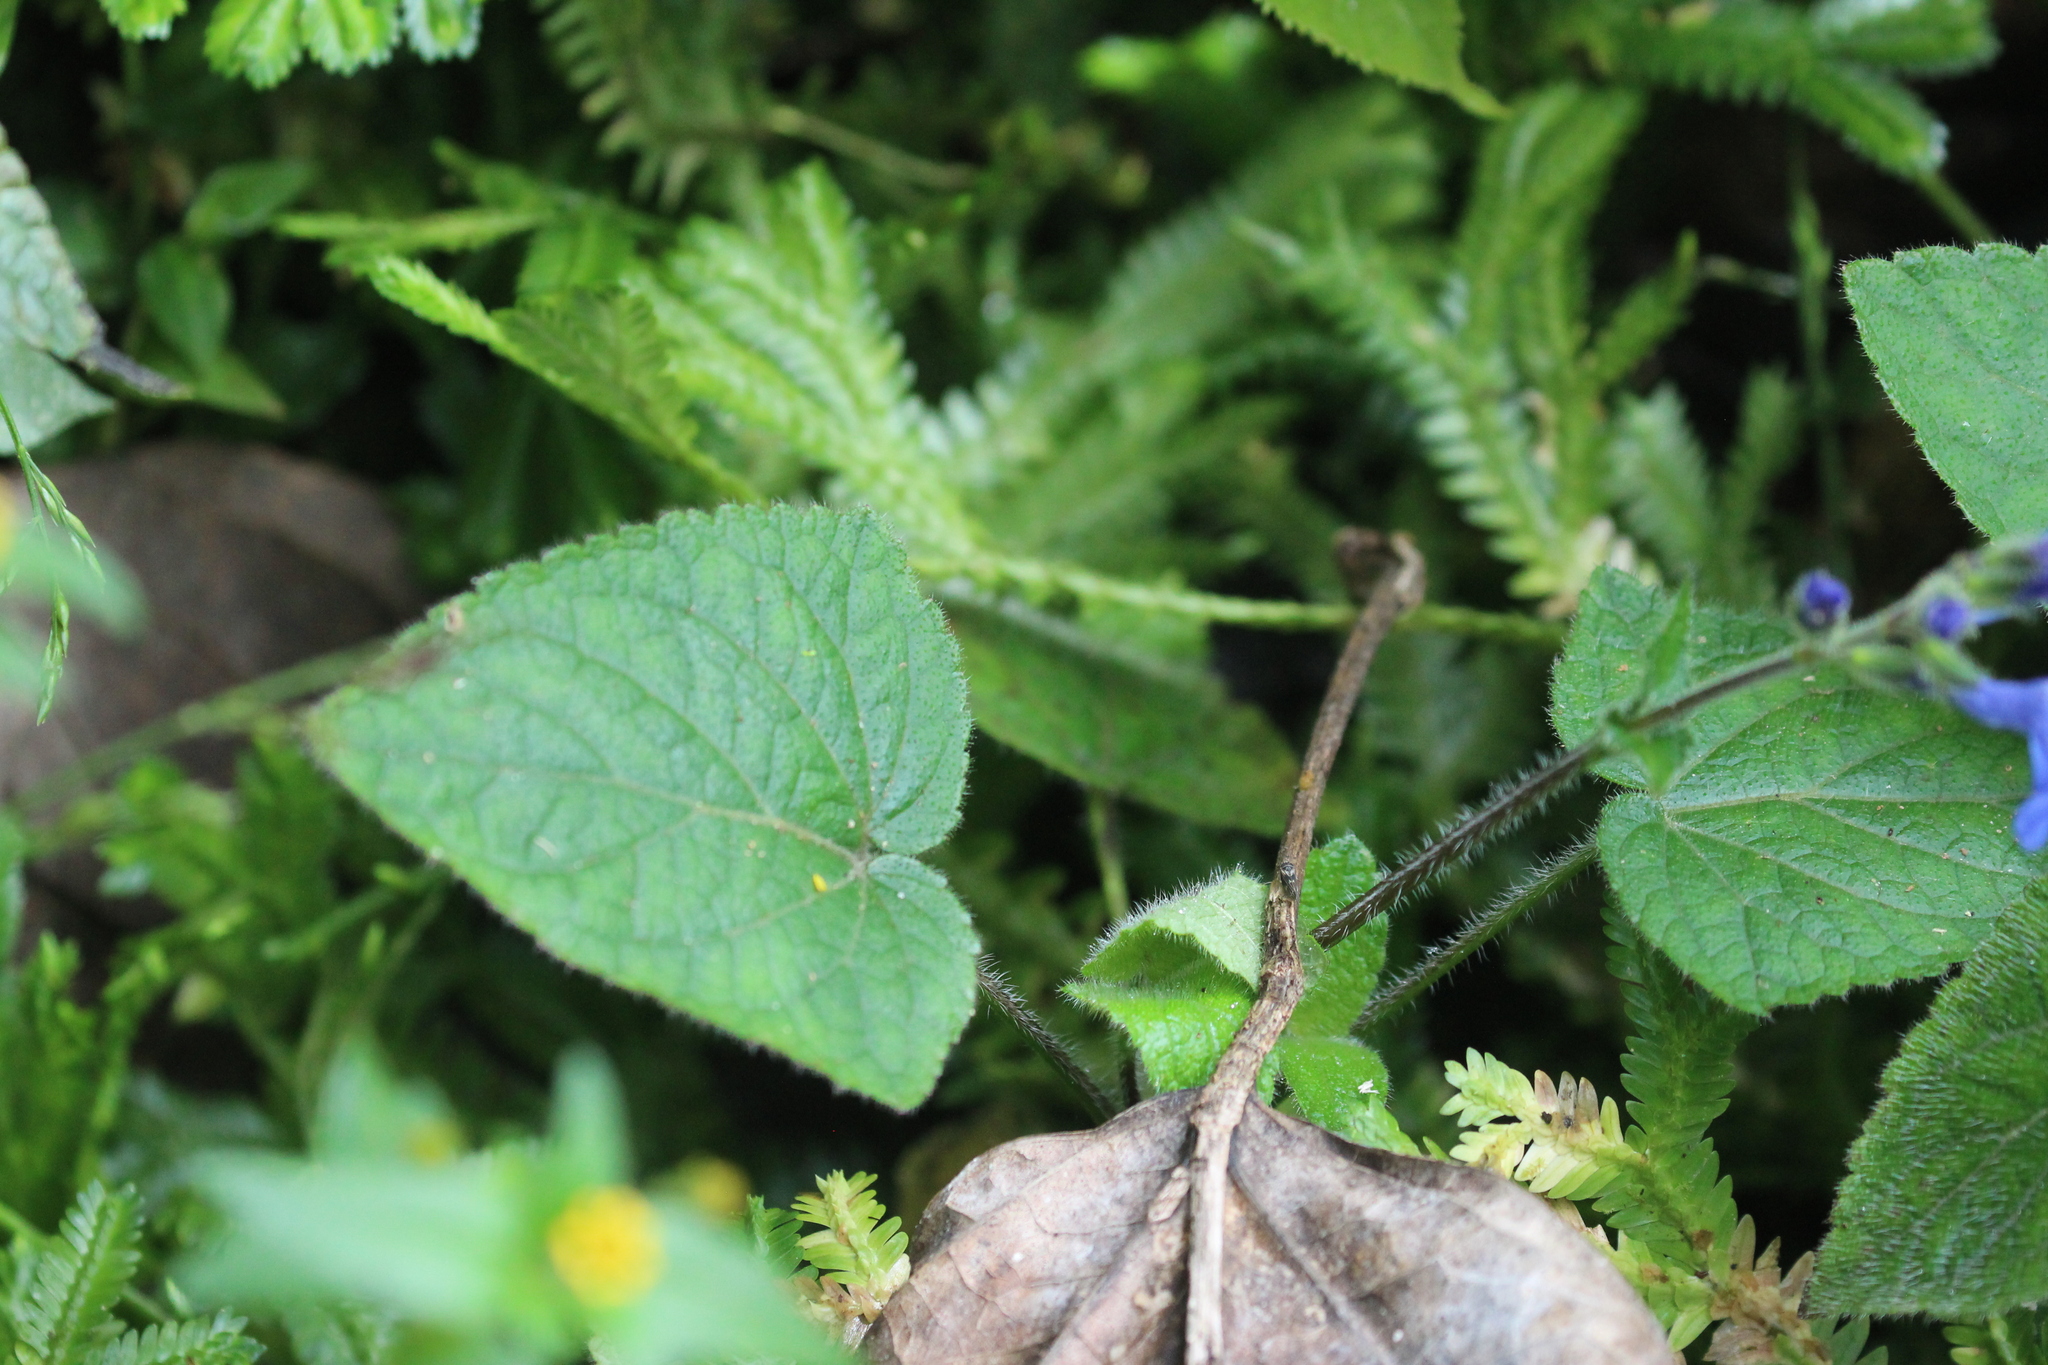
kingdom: Plantae
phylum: Tracheophyta
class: Magnoliopsida
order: Lamiales
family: Lamiaceae
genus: Salvia
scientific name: Salvia scutellarioides
